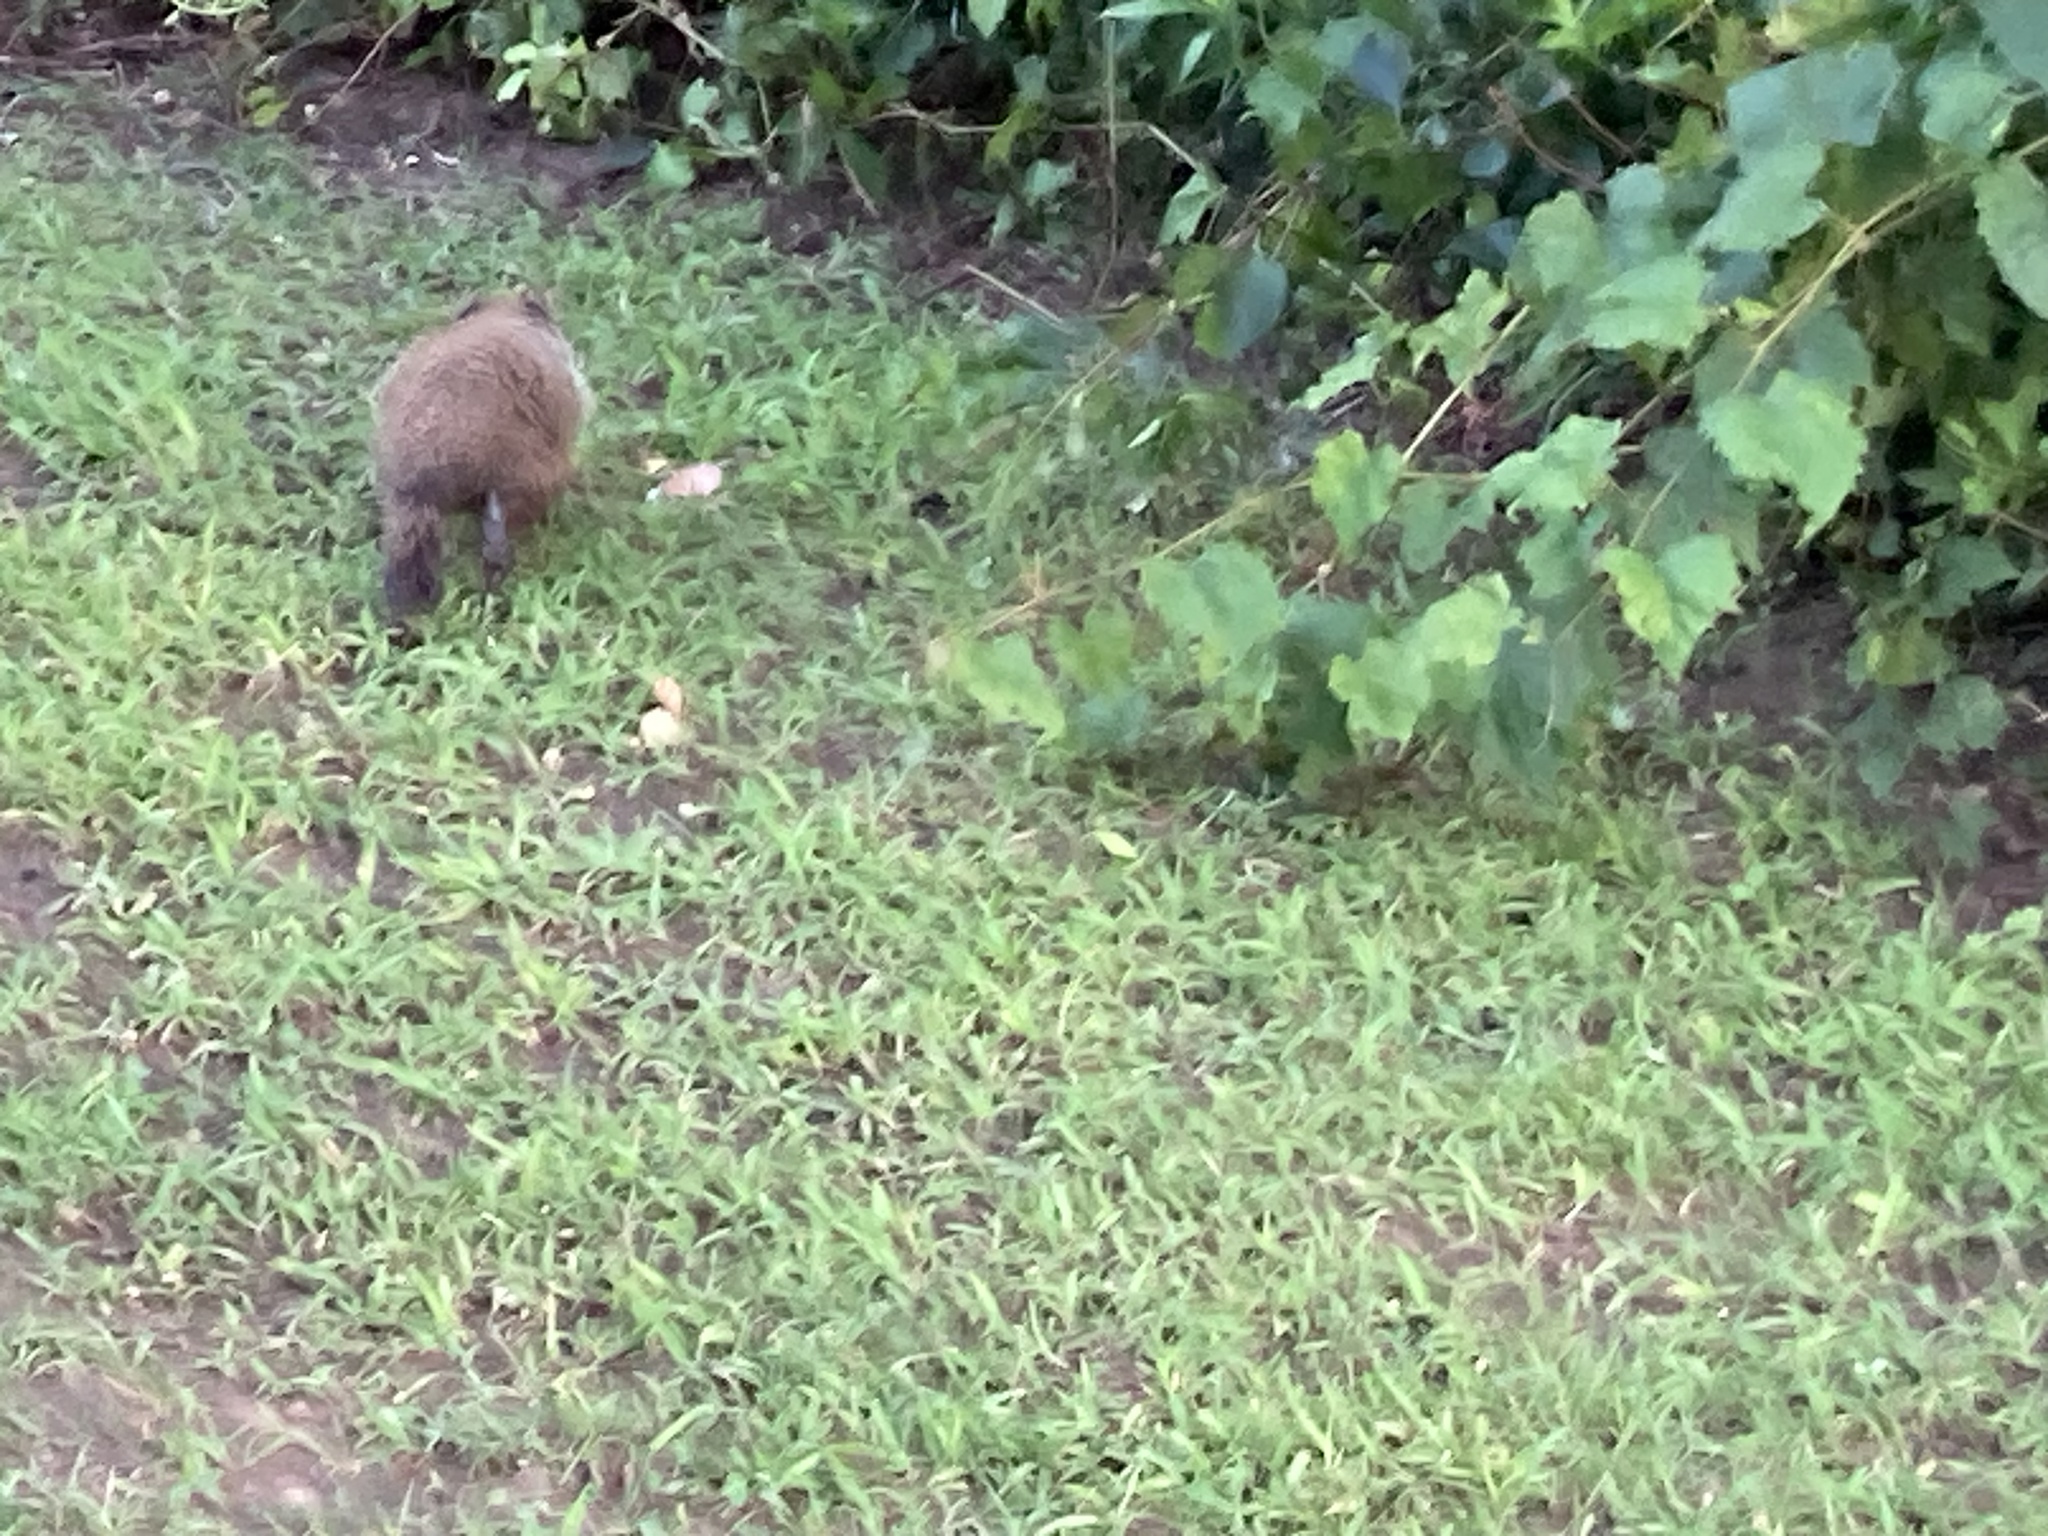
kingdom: Animalia
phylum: Chordata
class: Mammalia
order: Rodentia
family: Sciuridae
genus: Marmota
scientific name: Marmota monax
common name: Groundhog
